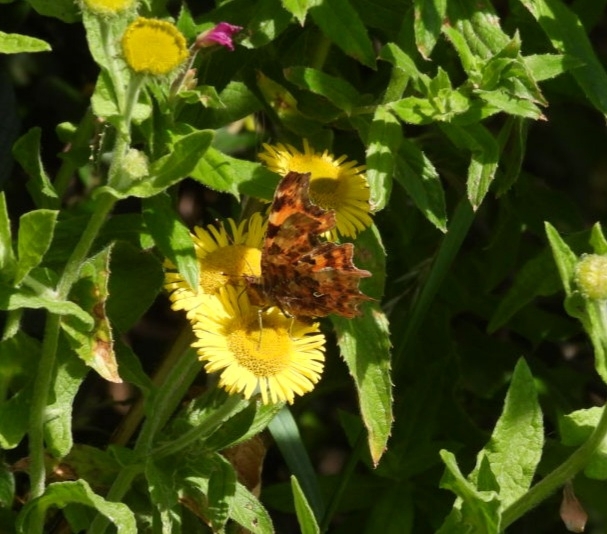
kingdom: Animalia
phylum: Arthropoda
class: Insecta
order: Lepidoptera
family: Nymphalidae
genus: Polygonia
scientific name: Polygonia c-album
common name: Comma
